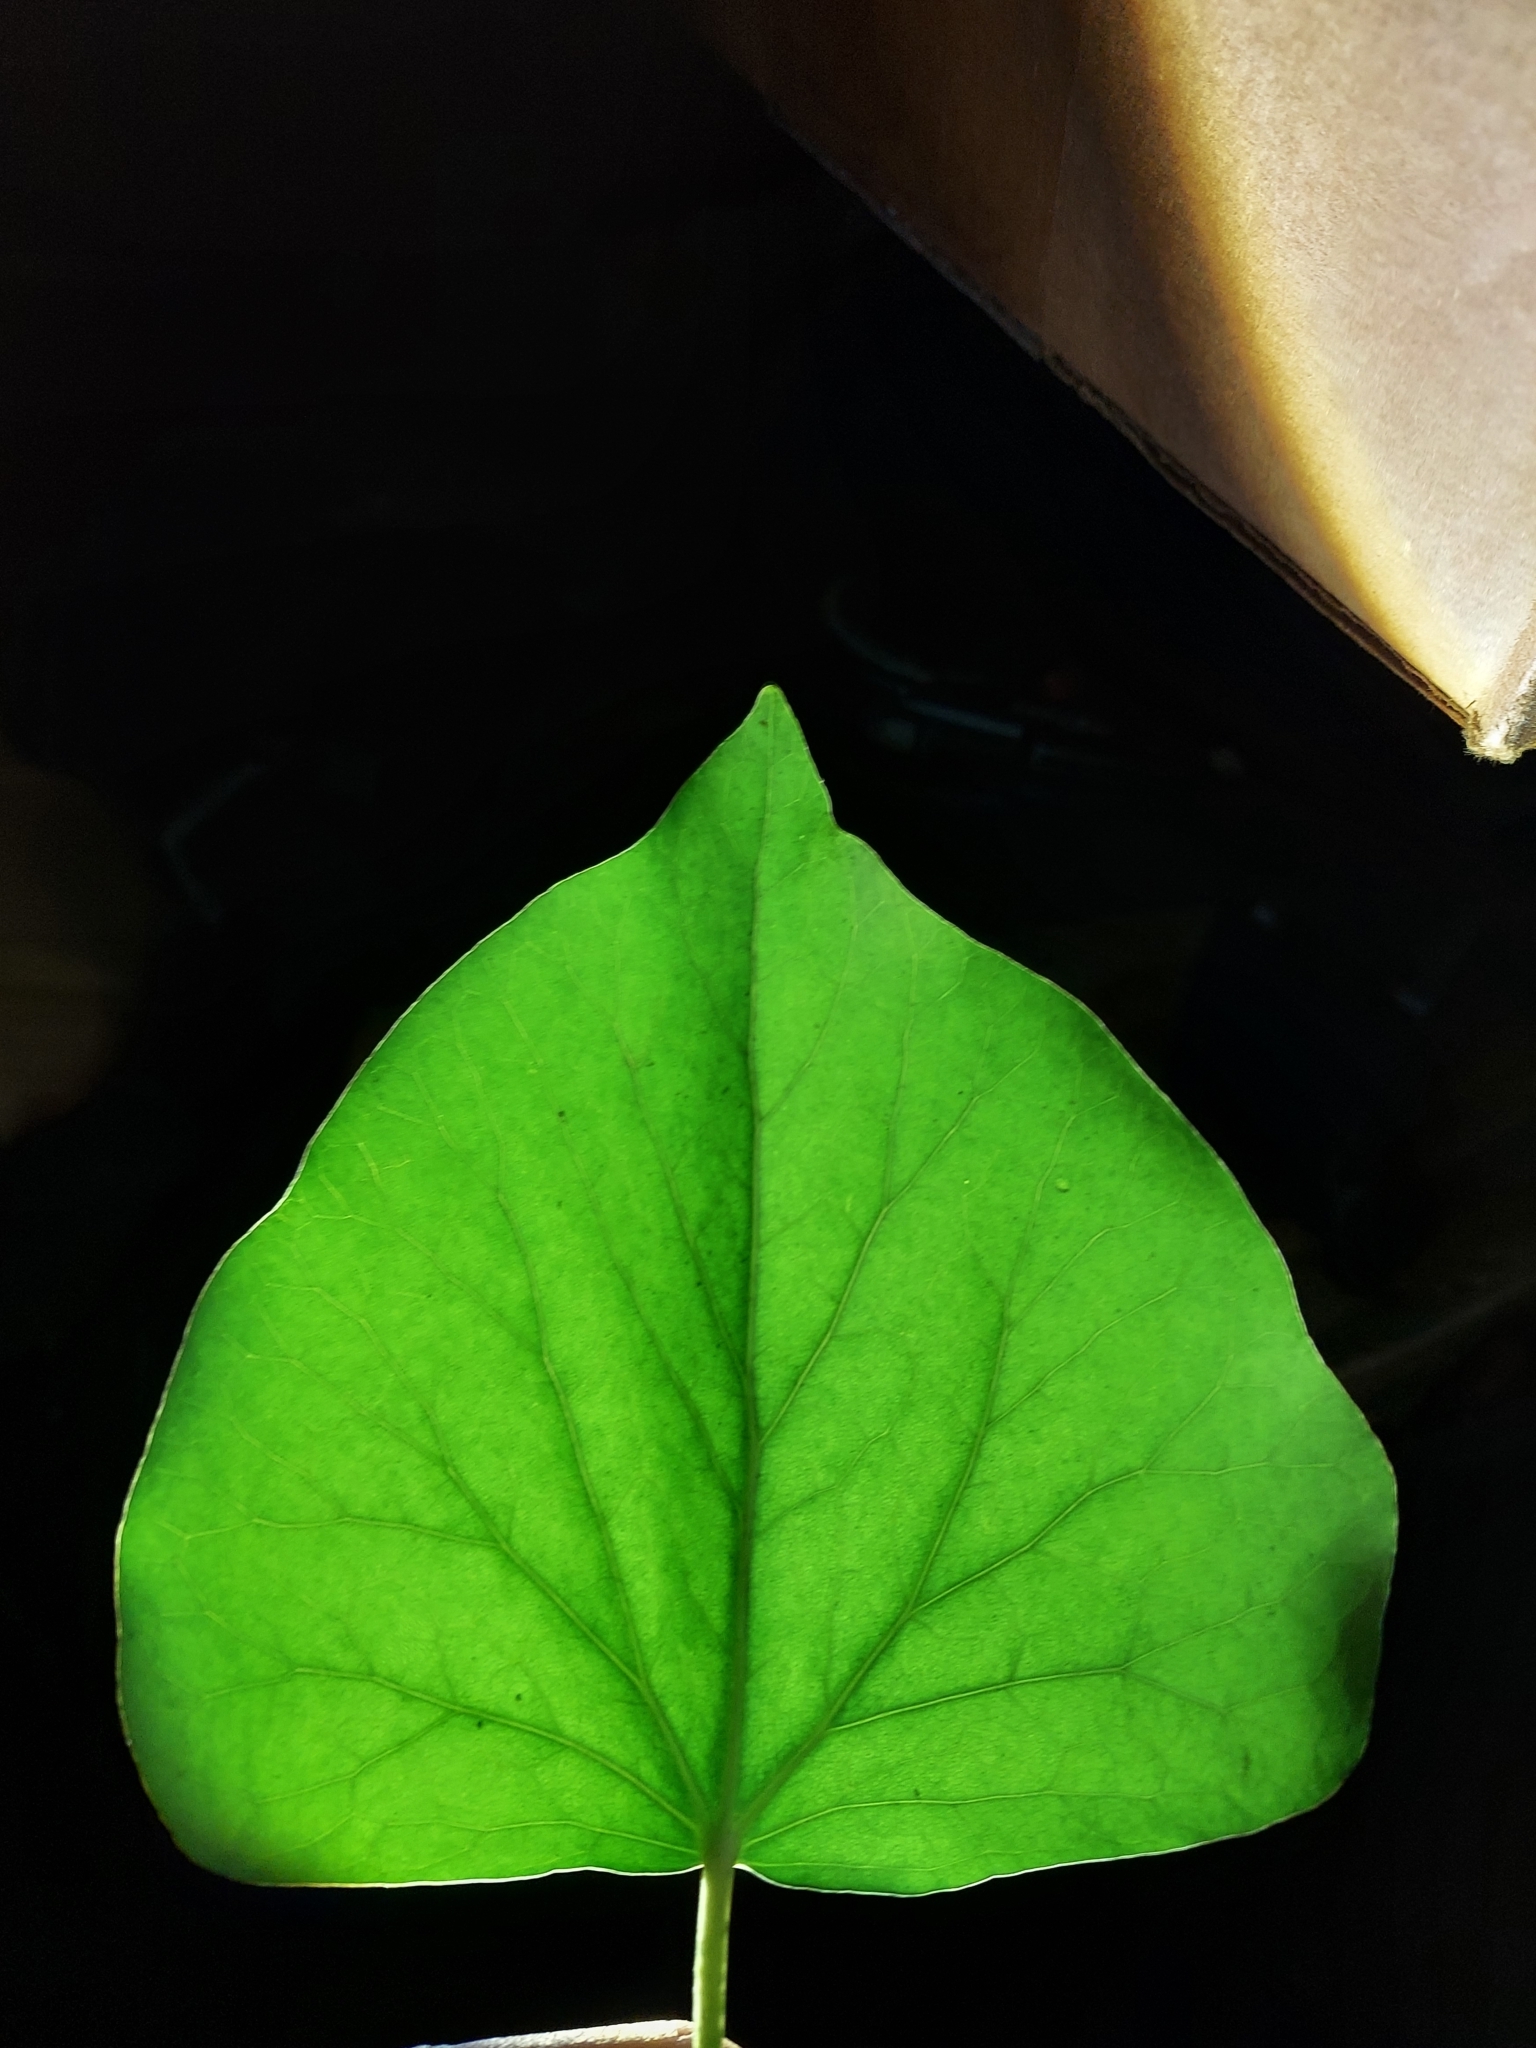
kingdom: Plantae
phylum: Tracheophyta
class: Magnoliopsida
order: Apiales
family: Araliaceae
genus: Hedera
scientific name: Hedera helix
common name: Ivy
